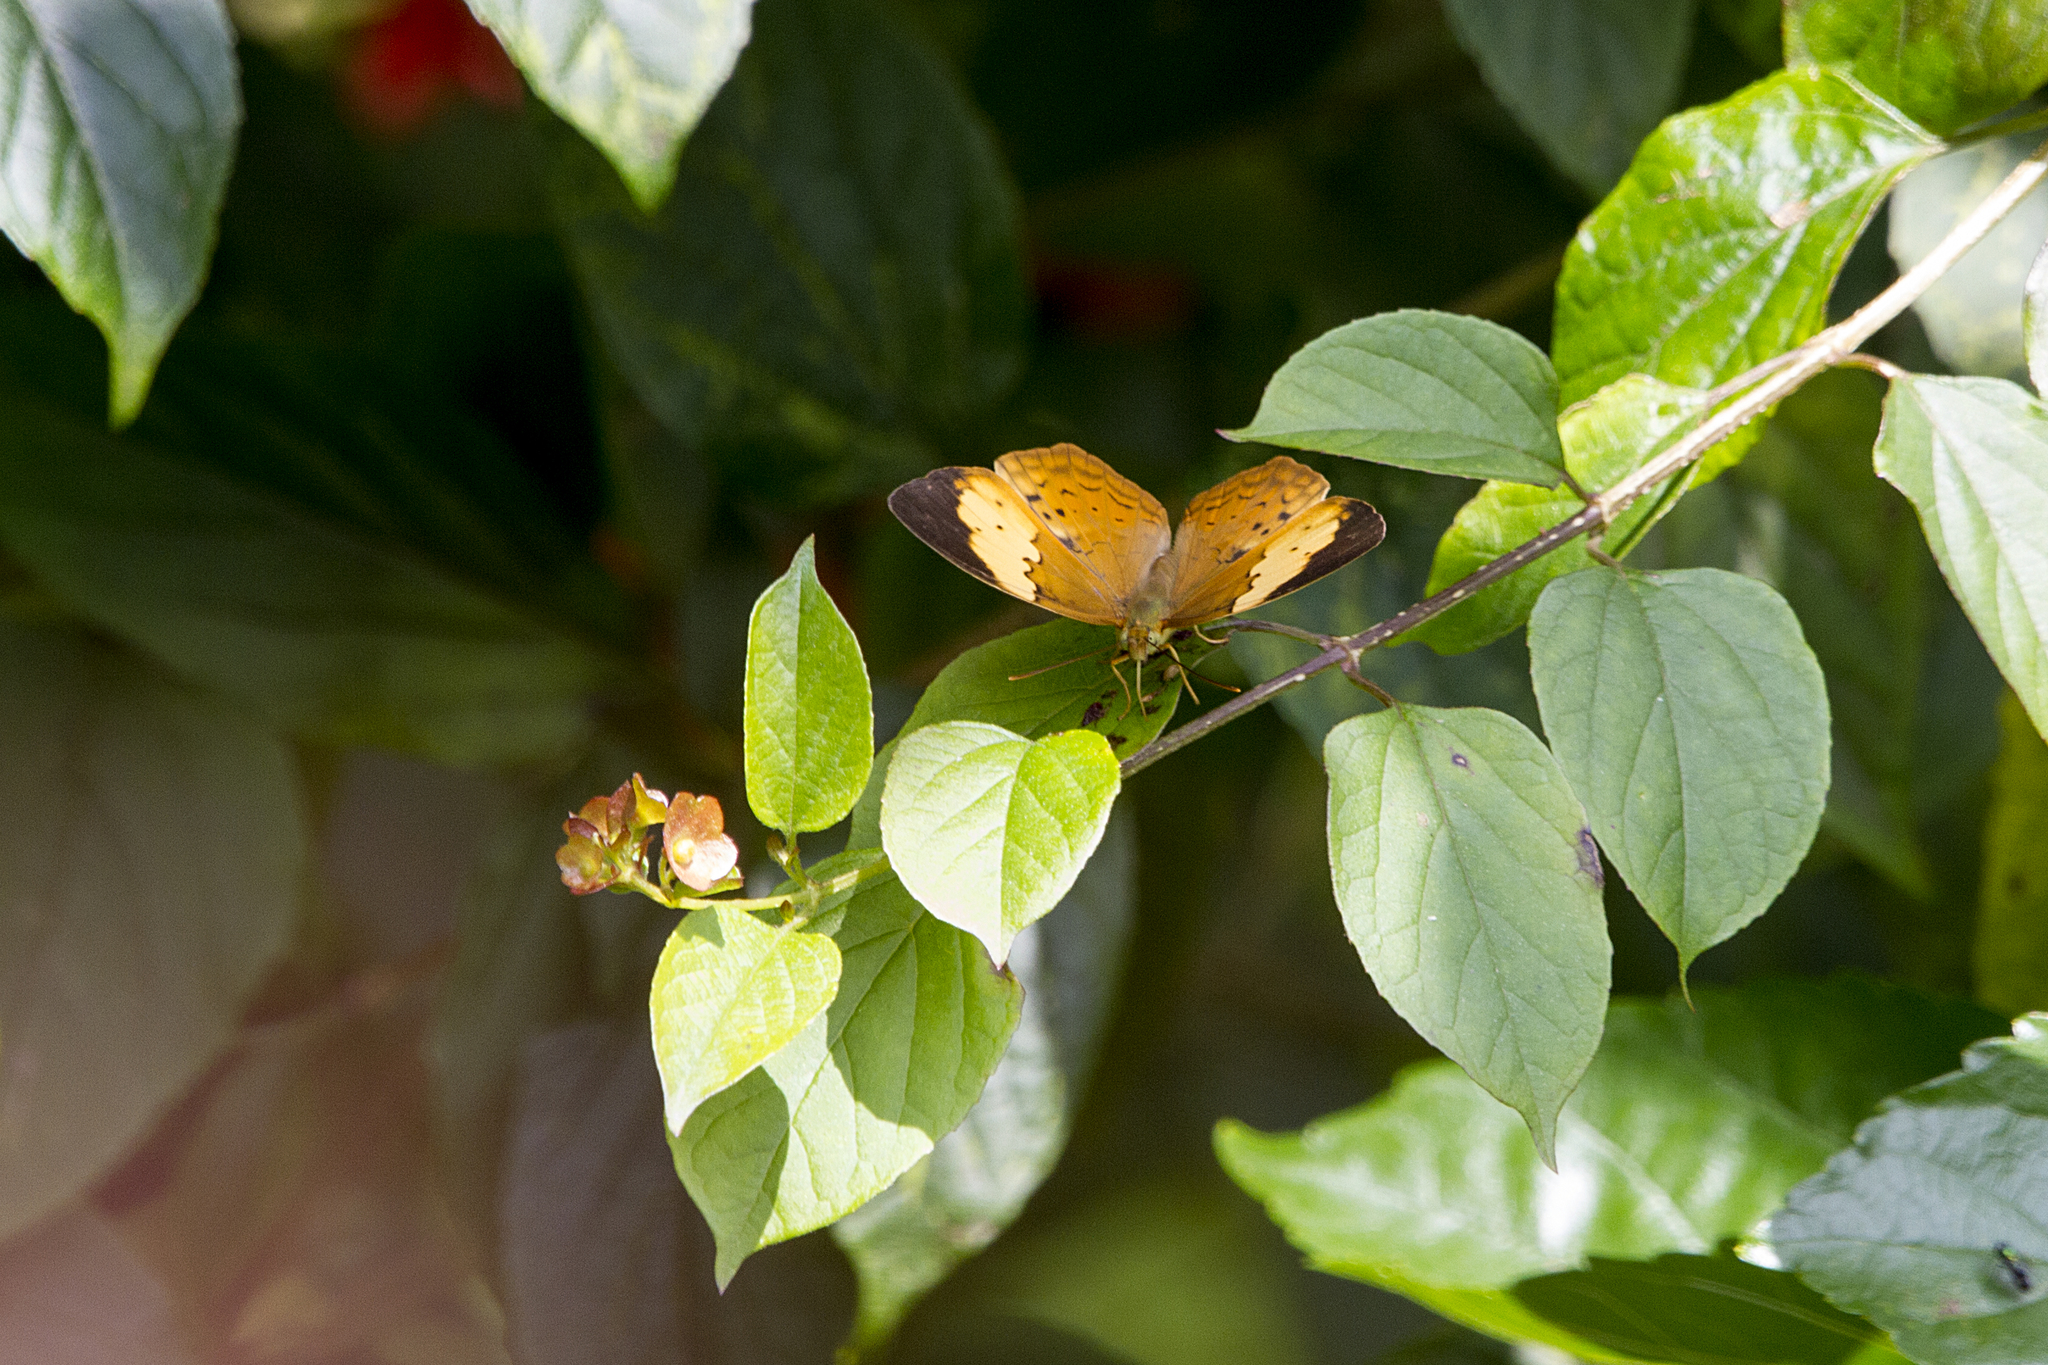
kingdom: Animalia
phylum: Arthropoda
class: Insecta
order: Lepidoptera
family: Nymphalidae
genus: Cupha
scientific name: Cupha erymanthis
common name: Rustic
